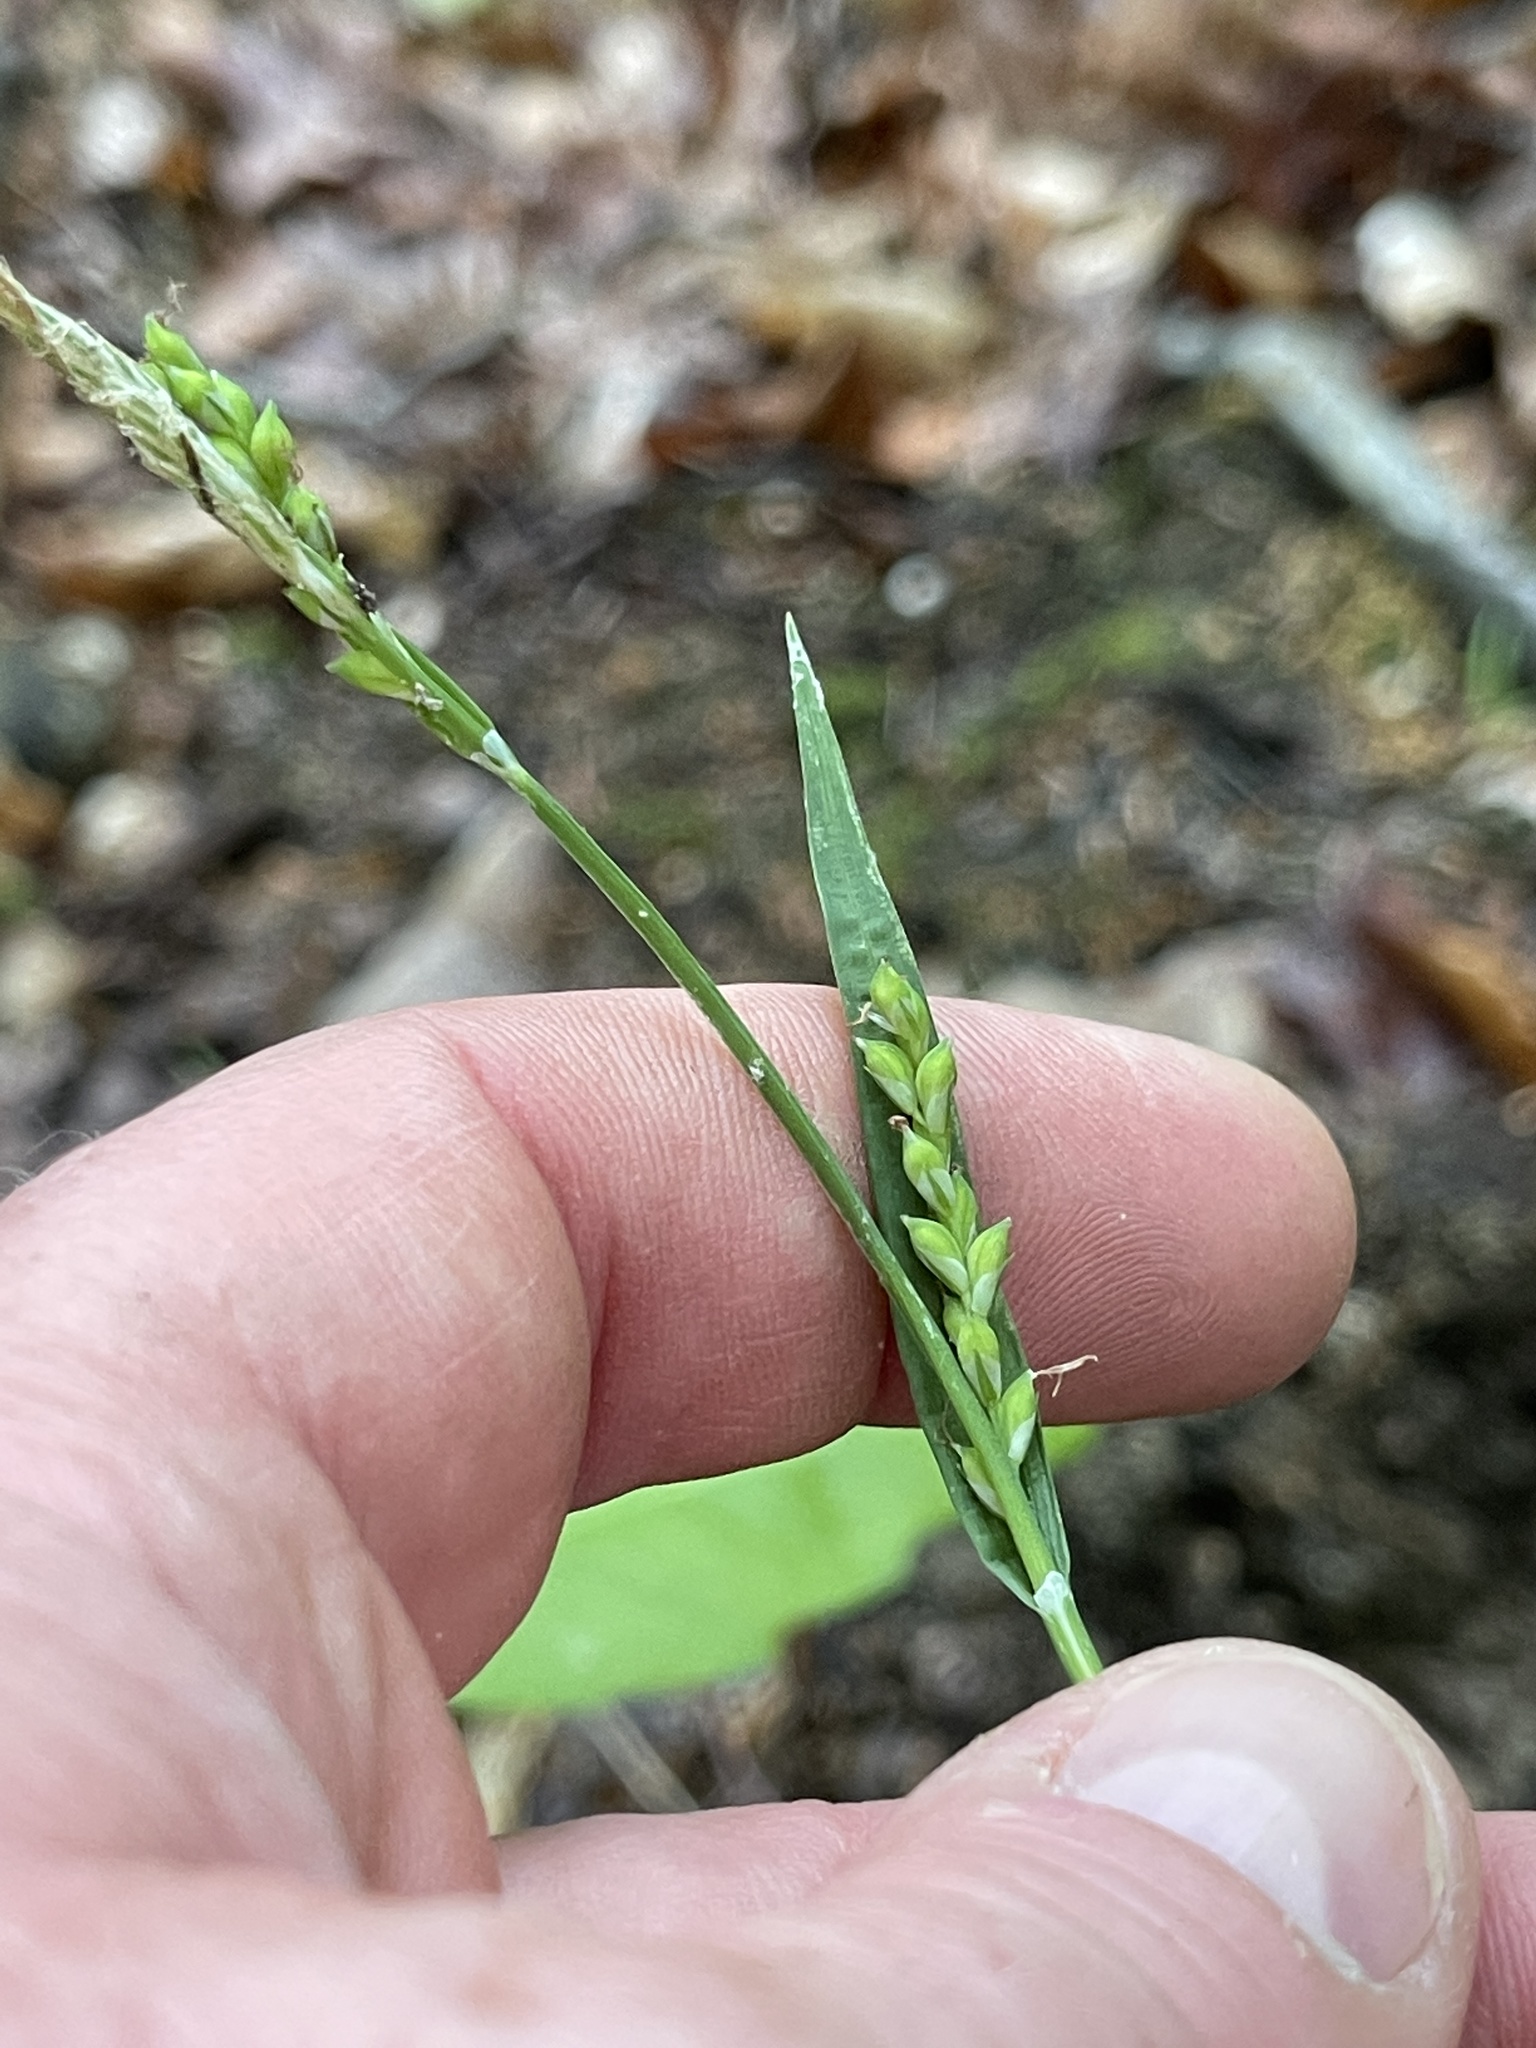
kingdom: Plantae
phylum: Tracheophyta
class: Liliopsida
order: Poales
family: Cyperaceae
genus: Carex
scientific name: Carex leptonervia
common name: Few-nerved wood sedge
